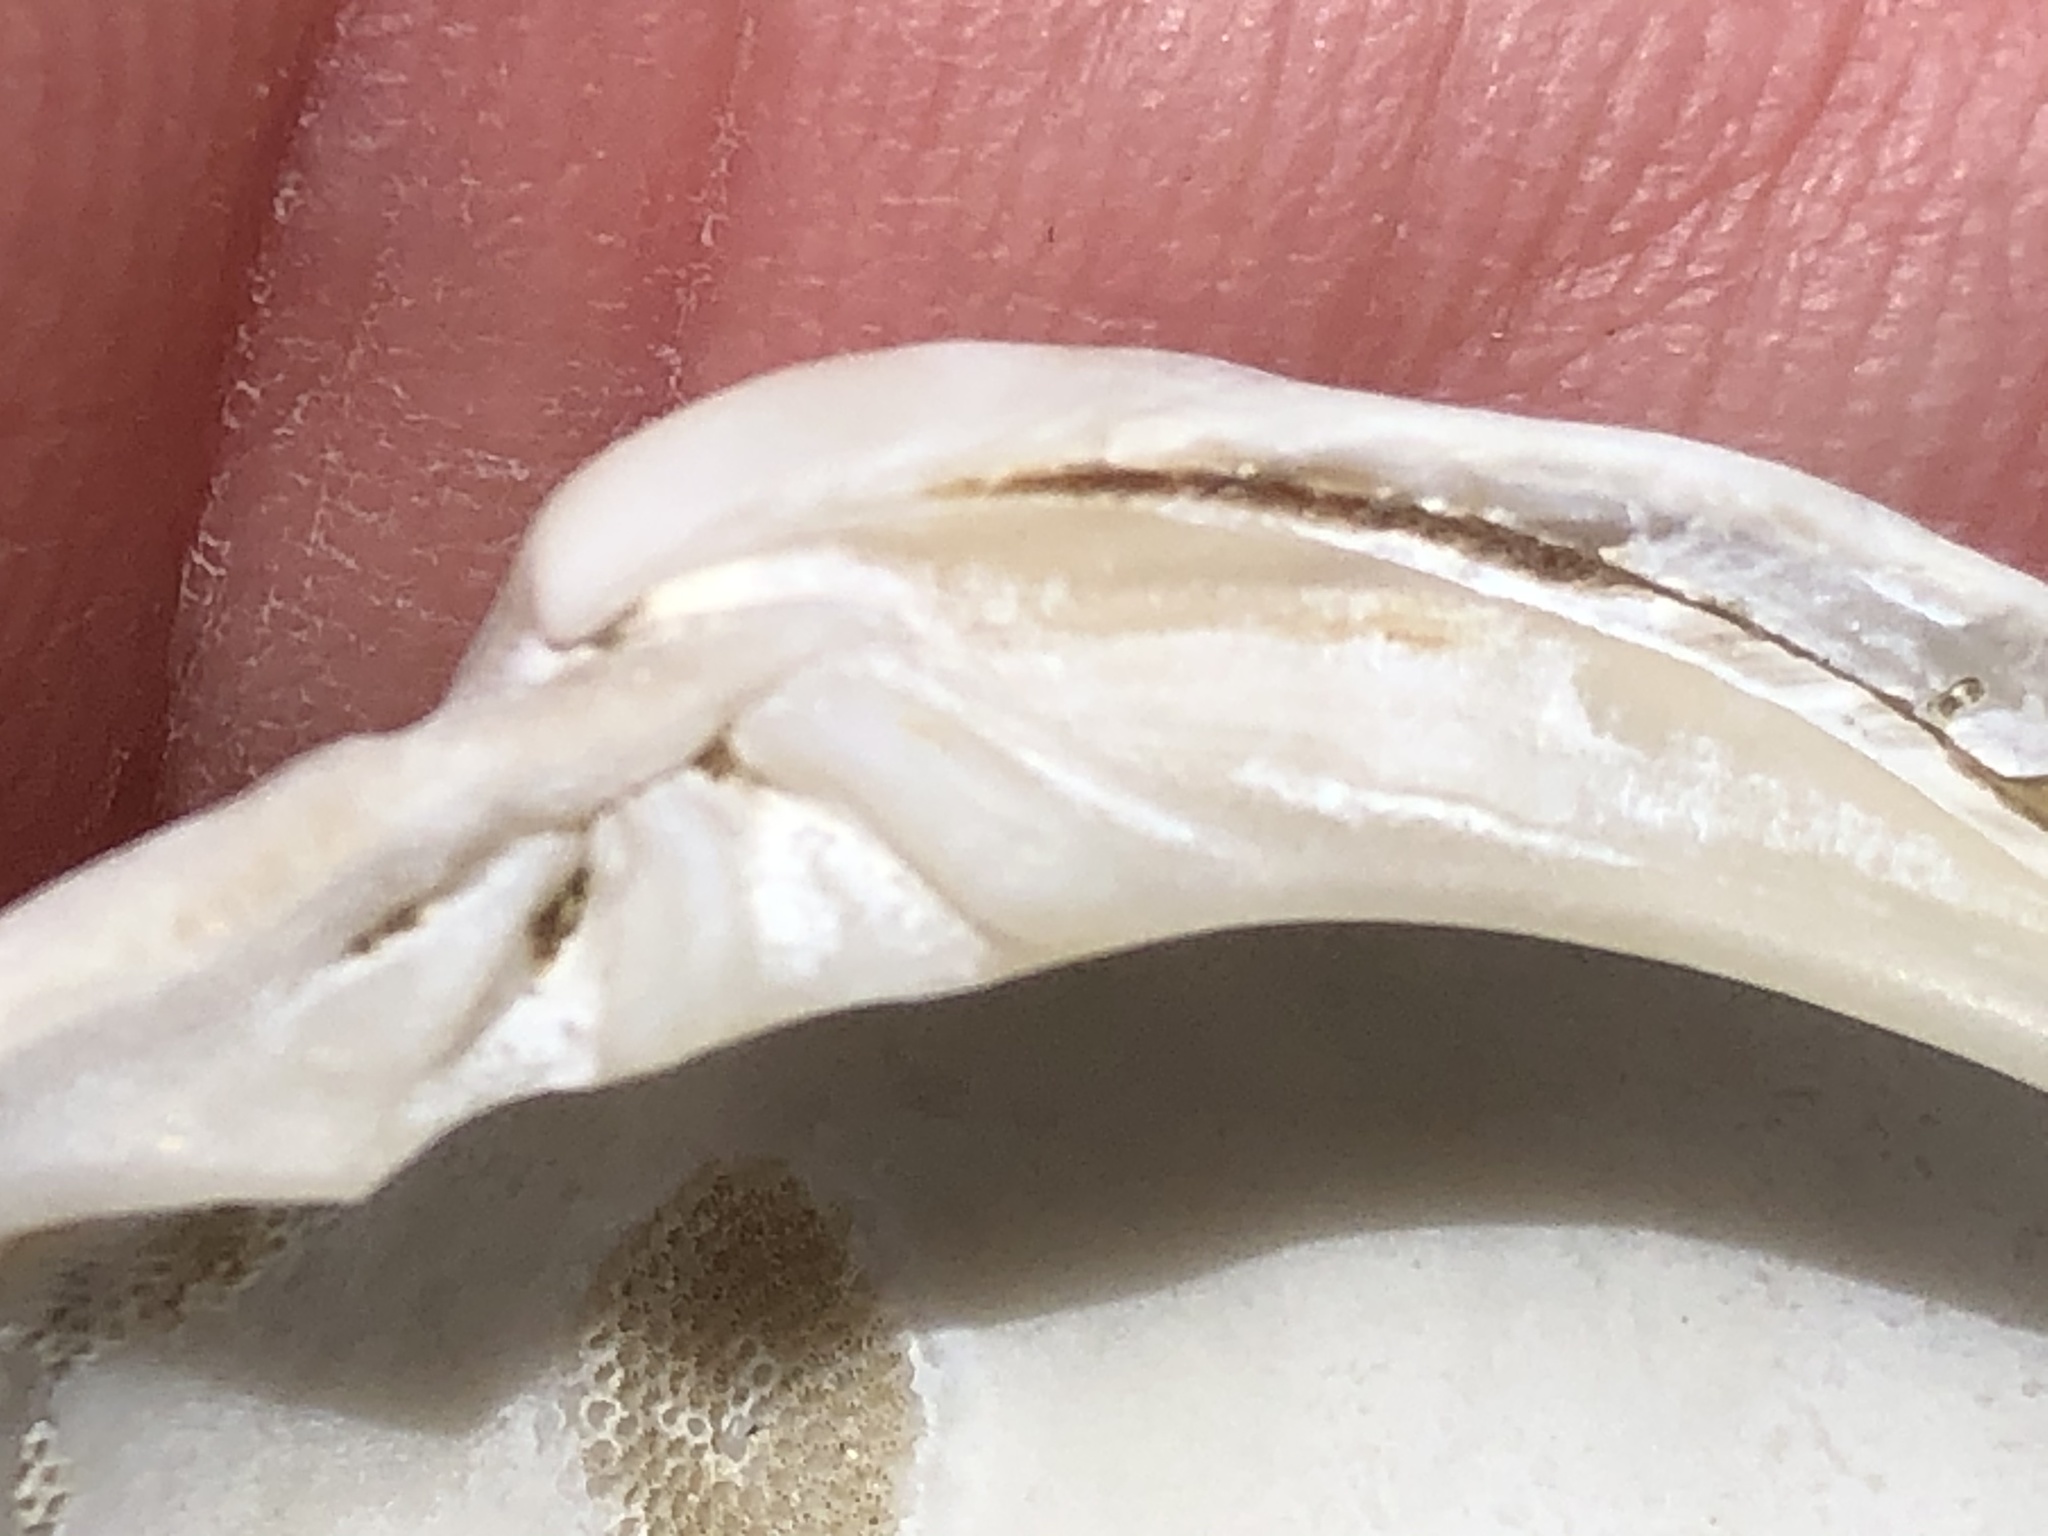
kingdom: Animalia
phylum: Mollusca
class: Bivalvia
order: Venerida
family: Veneridae
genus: Leukoma
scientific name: Leukoma staminea
